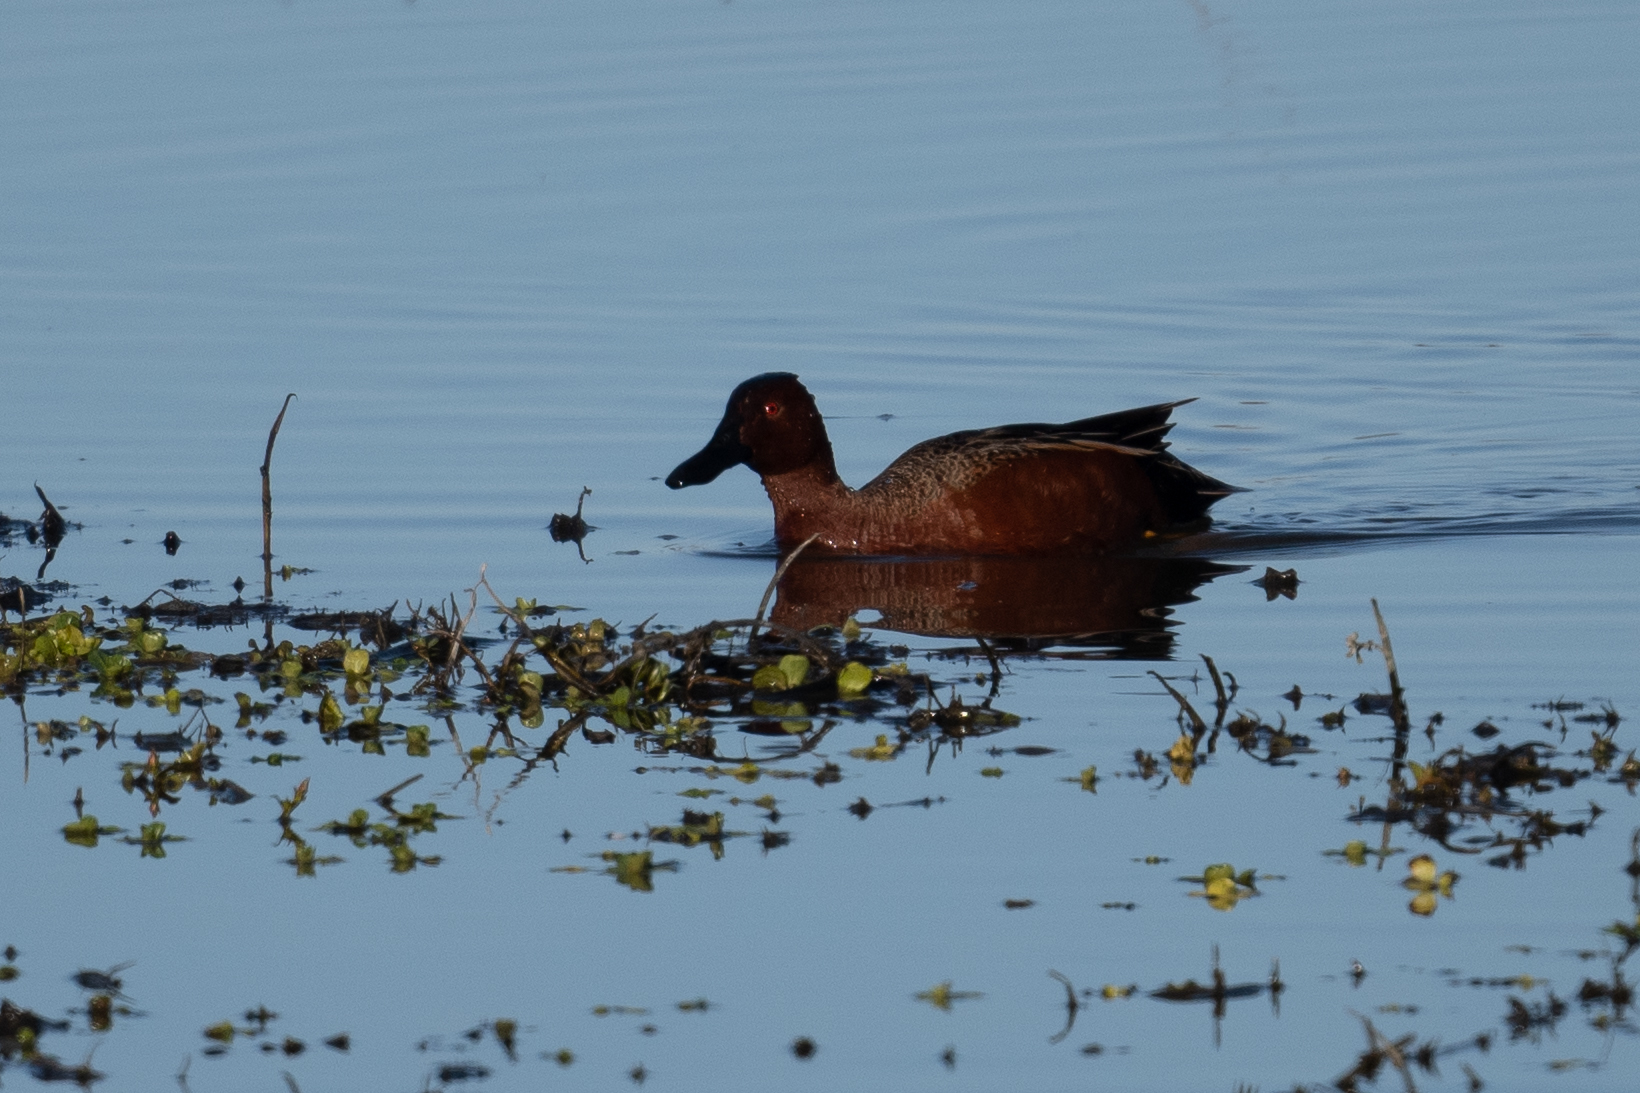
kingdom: Animalia
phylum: Chordata
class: Aves
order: Anseriformes
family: Anatidae
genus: Spatula
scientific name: Spatula cyanoptera
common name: Cinnamon teal
